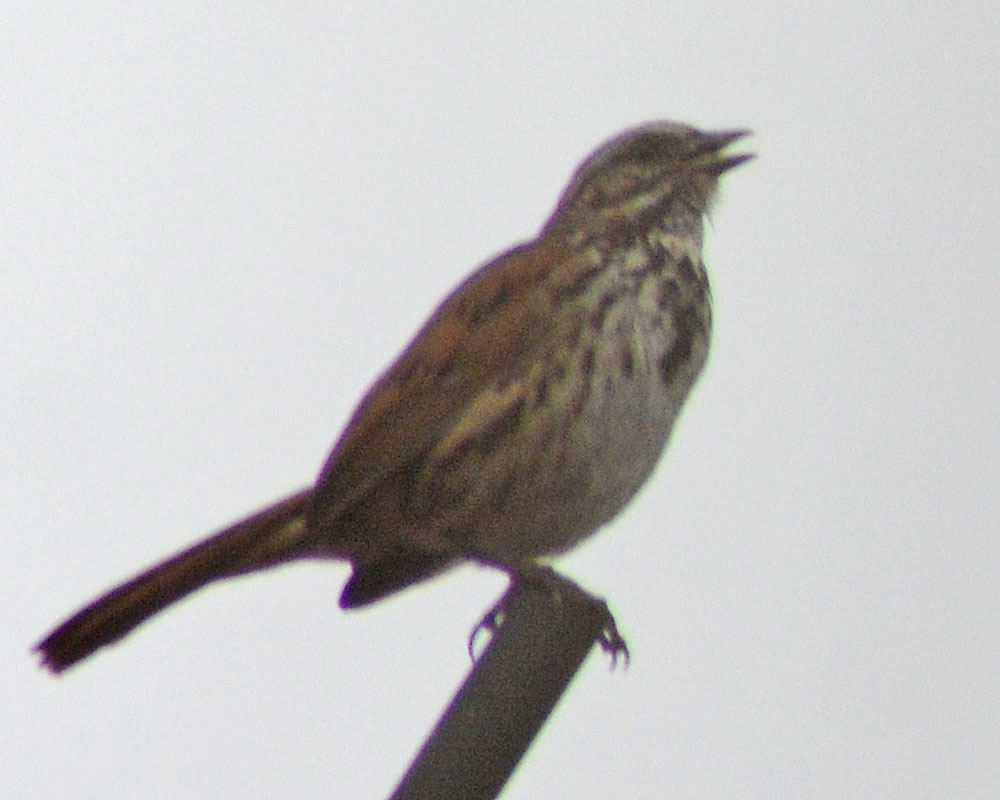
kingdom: Animalia
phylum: Chordata
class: Aves
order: Passeriformes
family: Passerellidae
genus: Melospiza
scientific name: Melospiza melodia
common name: Song sparrow
